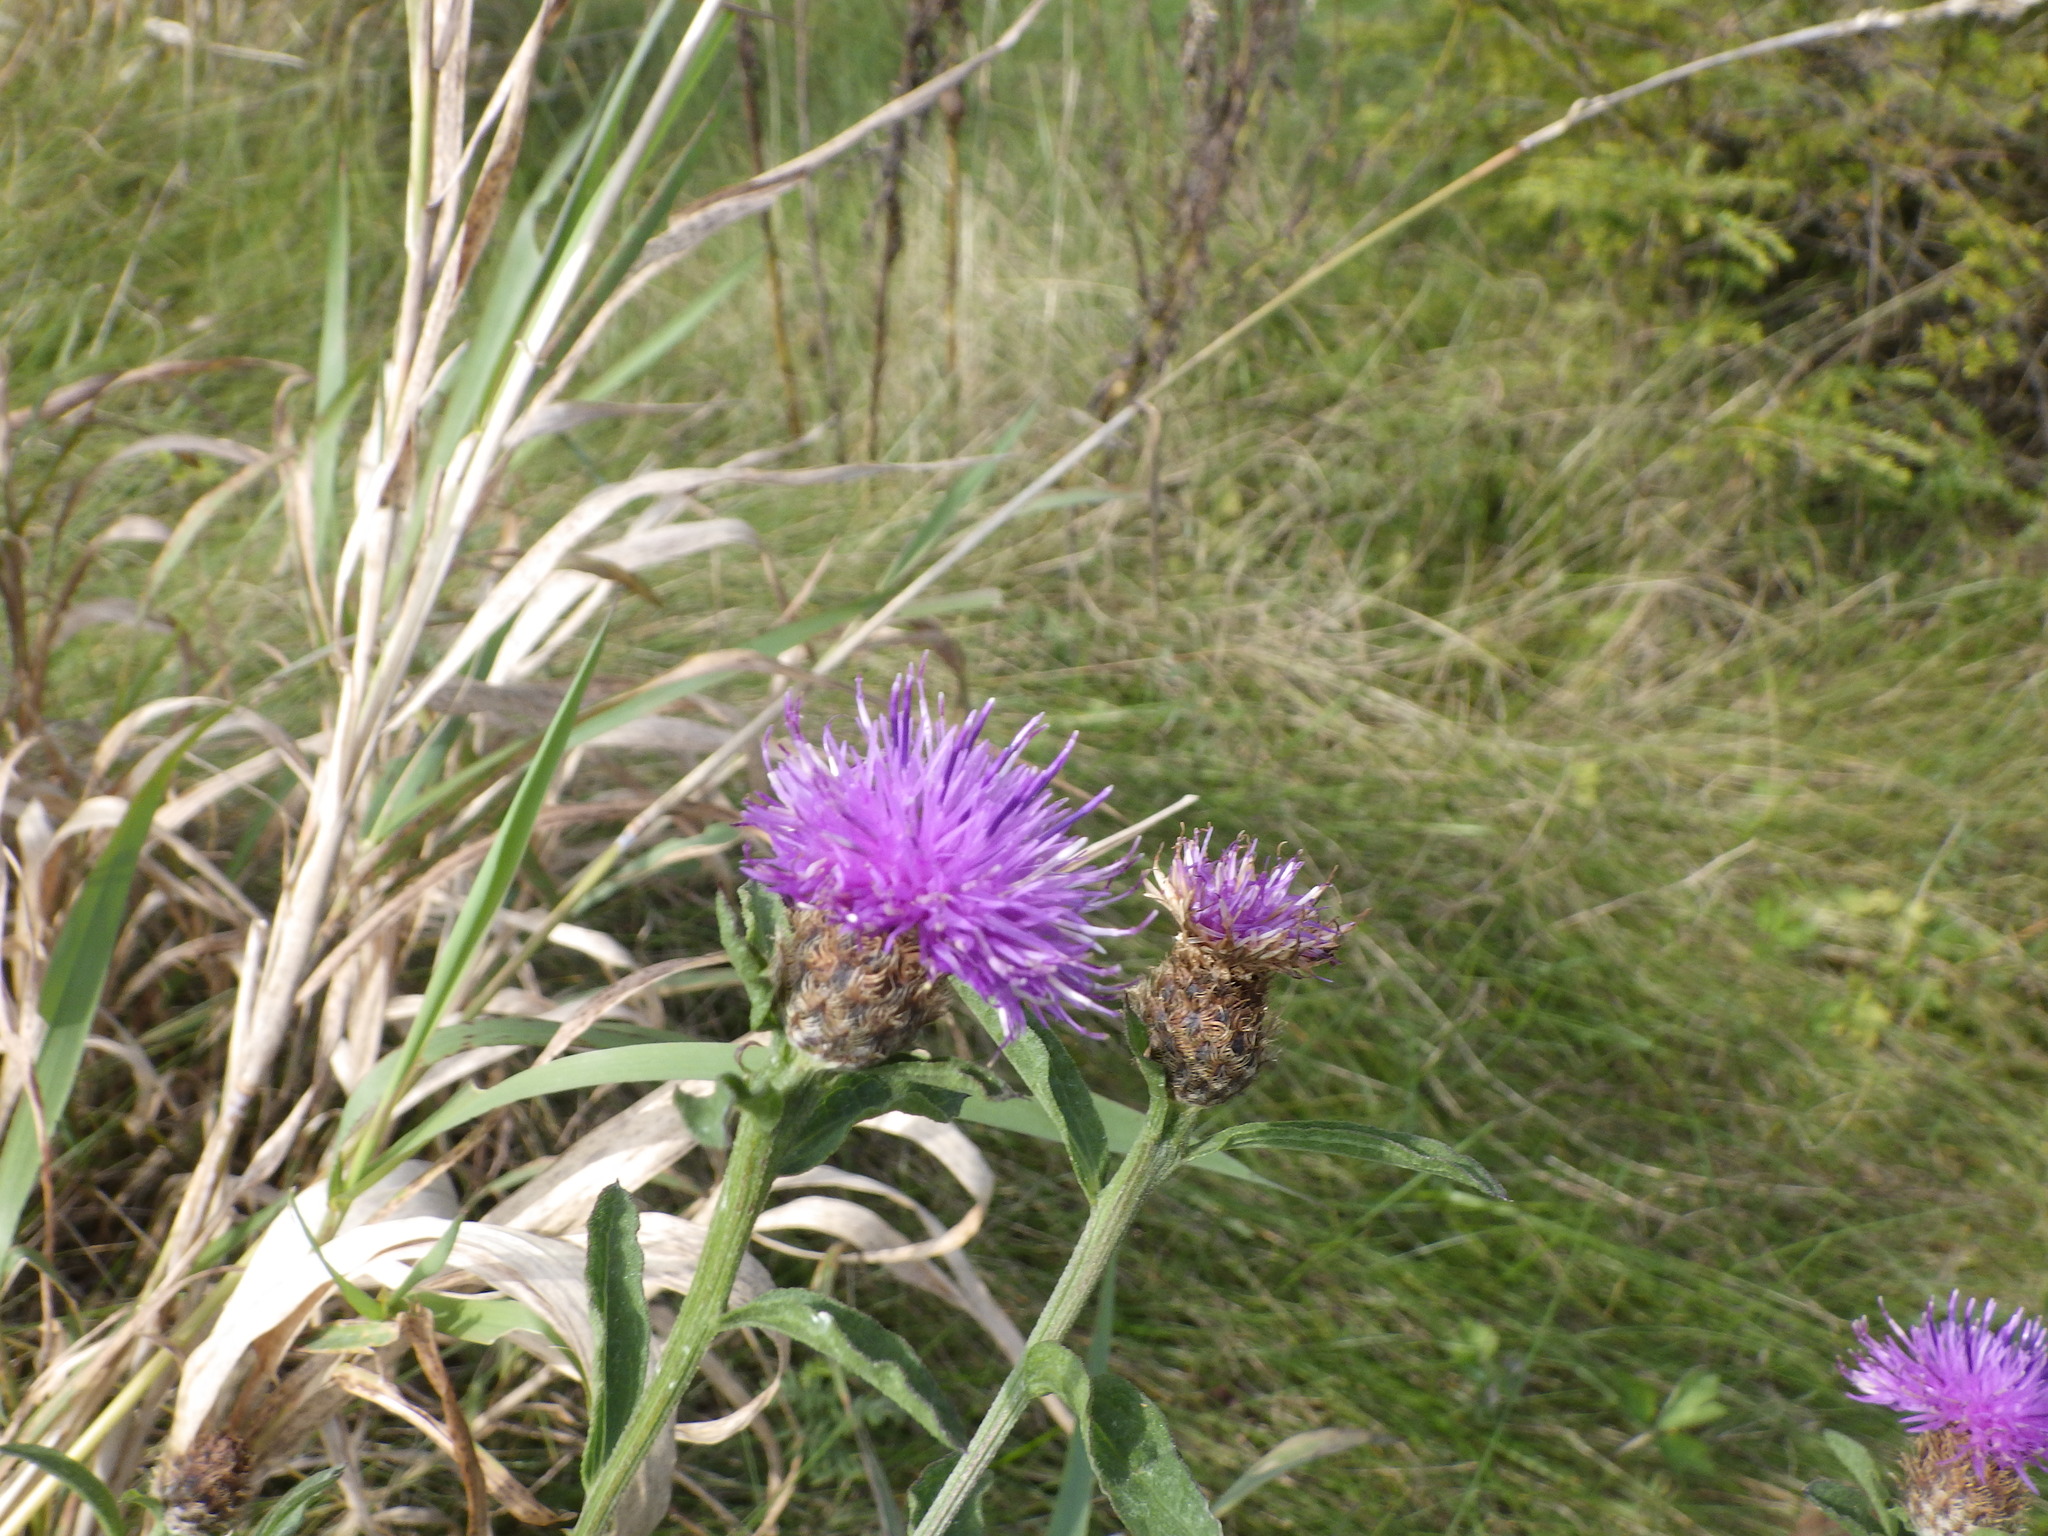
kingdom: Plantae
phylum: Tracheophyta
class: Magnoliopsida
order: Asterales
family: Asteraceae
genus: Centaurea
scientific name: Centaurea nigra
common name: Lesser knapweed
